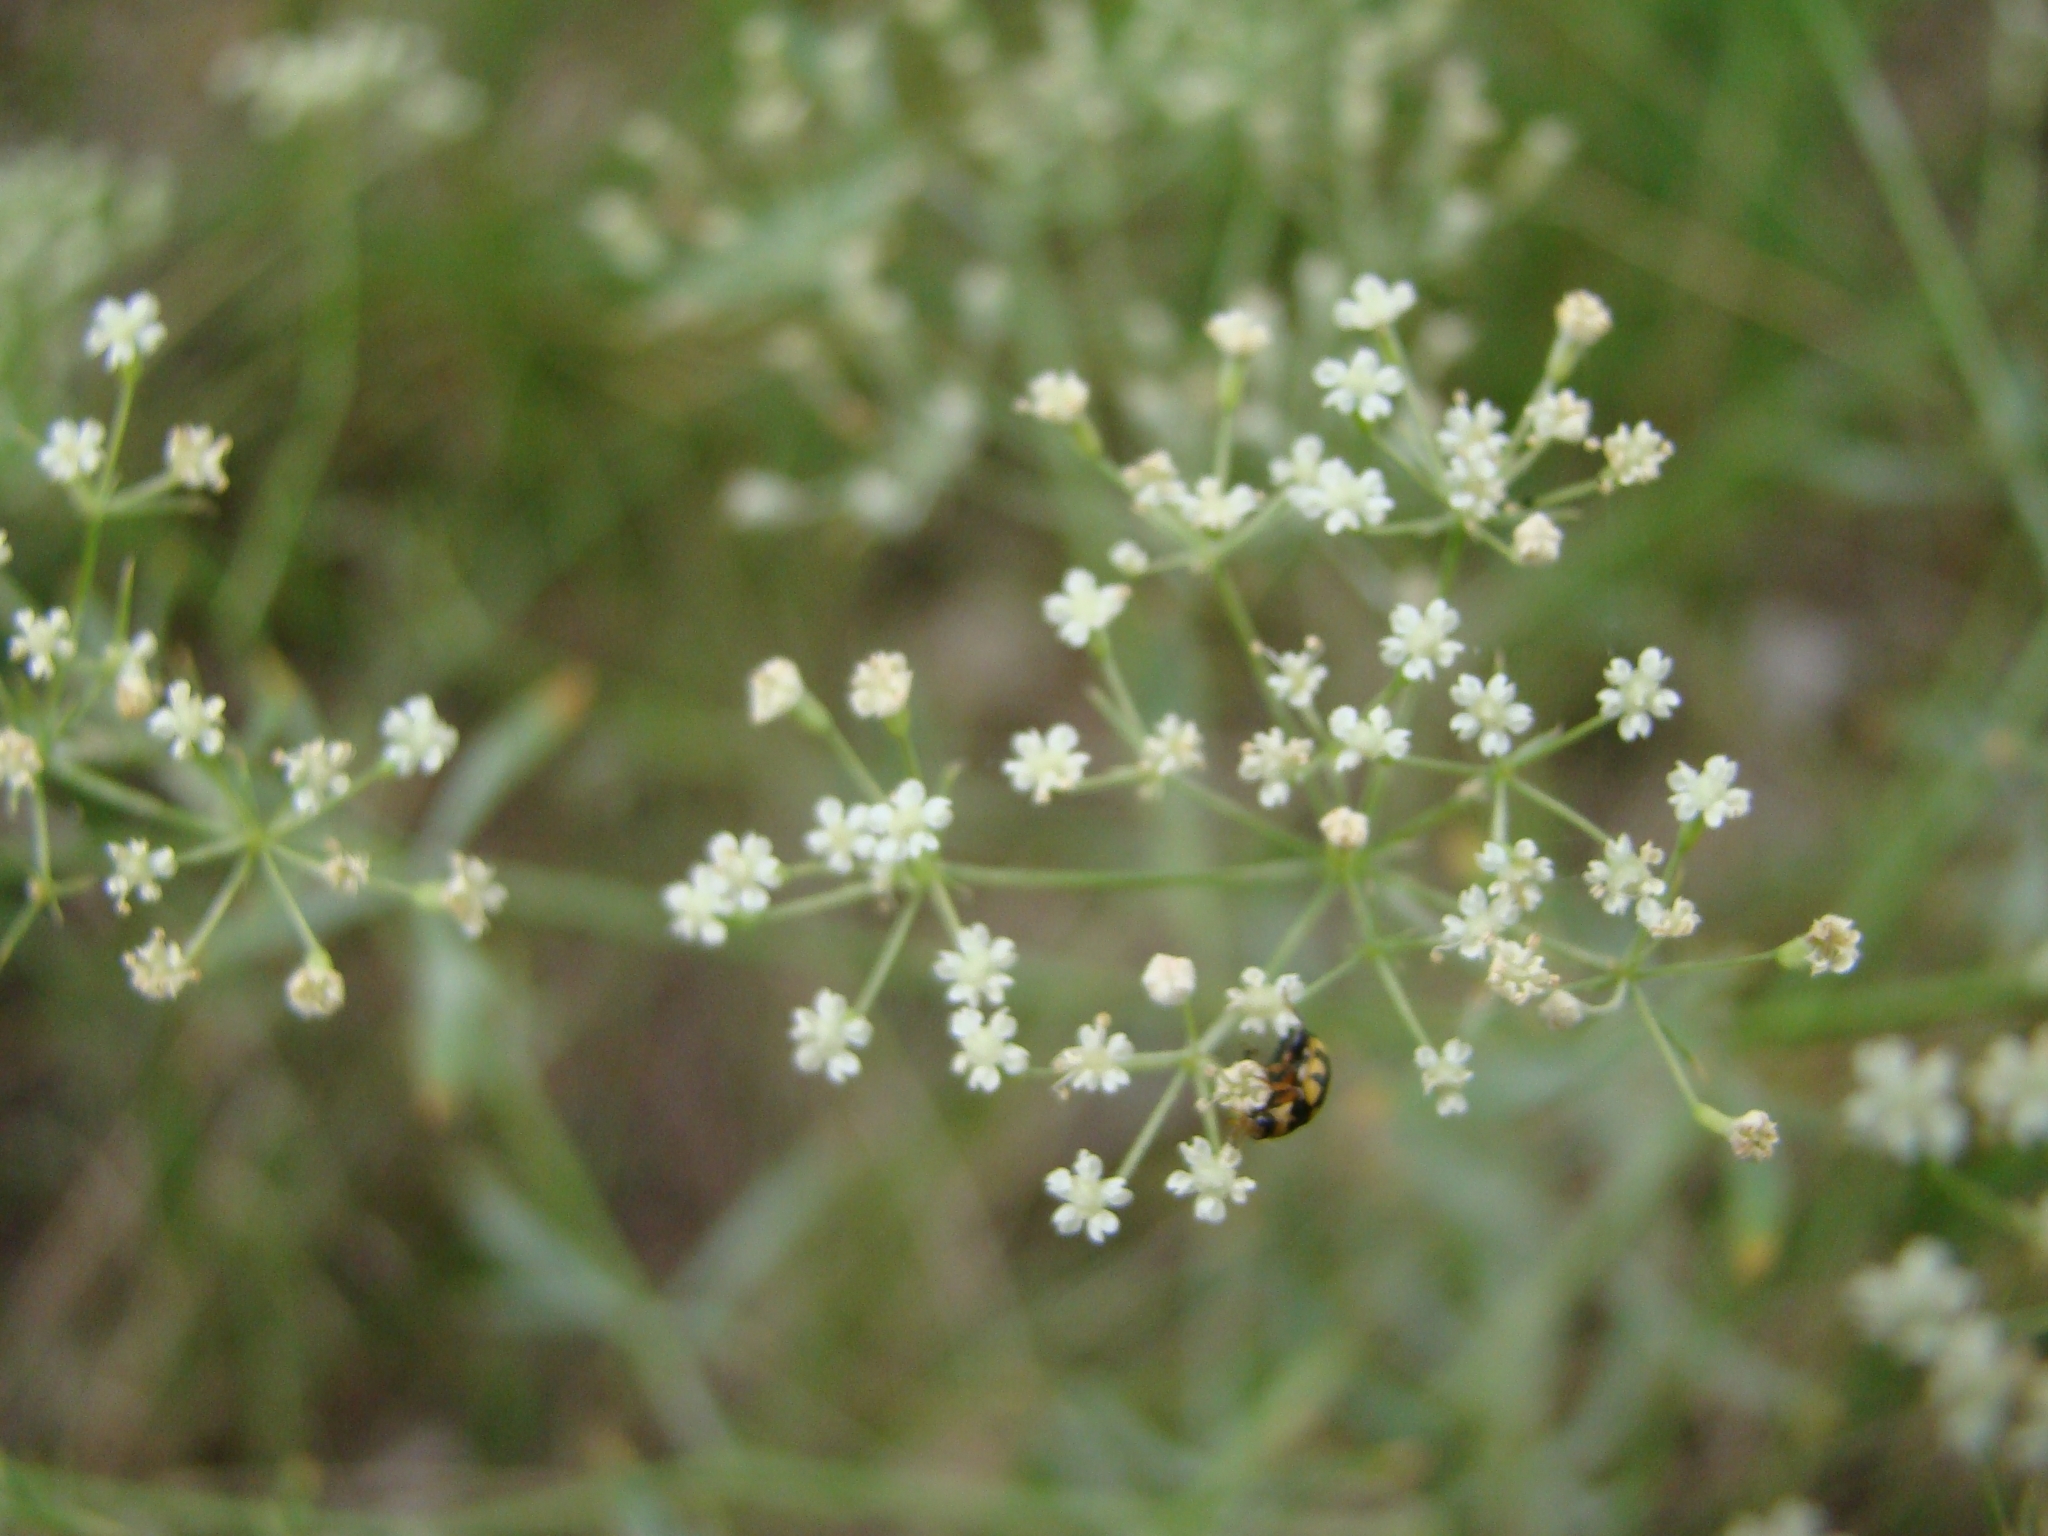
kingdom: Animalia
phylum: Arthropoda
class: Insecta
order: Coleoptera
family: Coccinellidae
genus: Coccinula
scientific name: Coccinula quatuordecimpustulata
